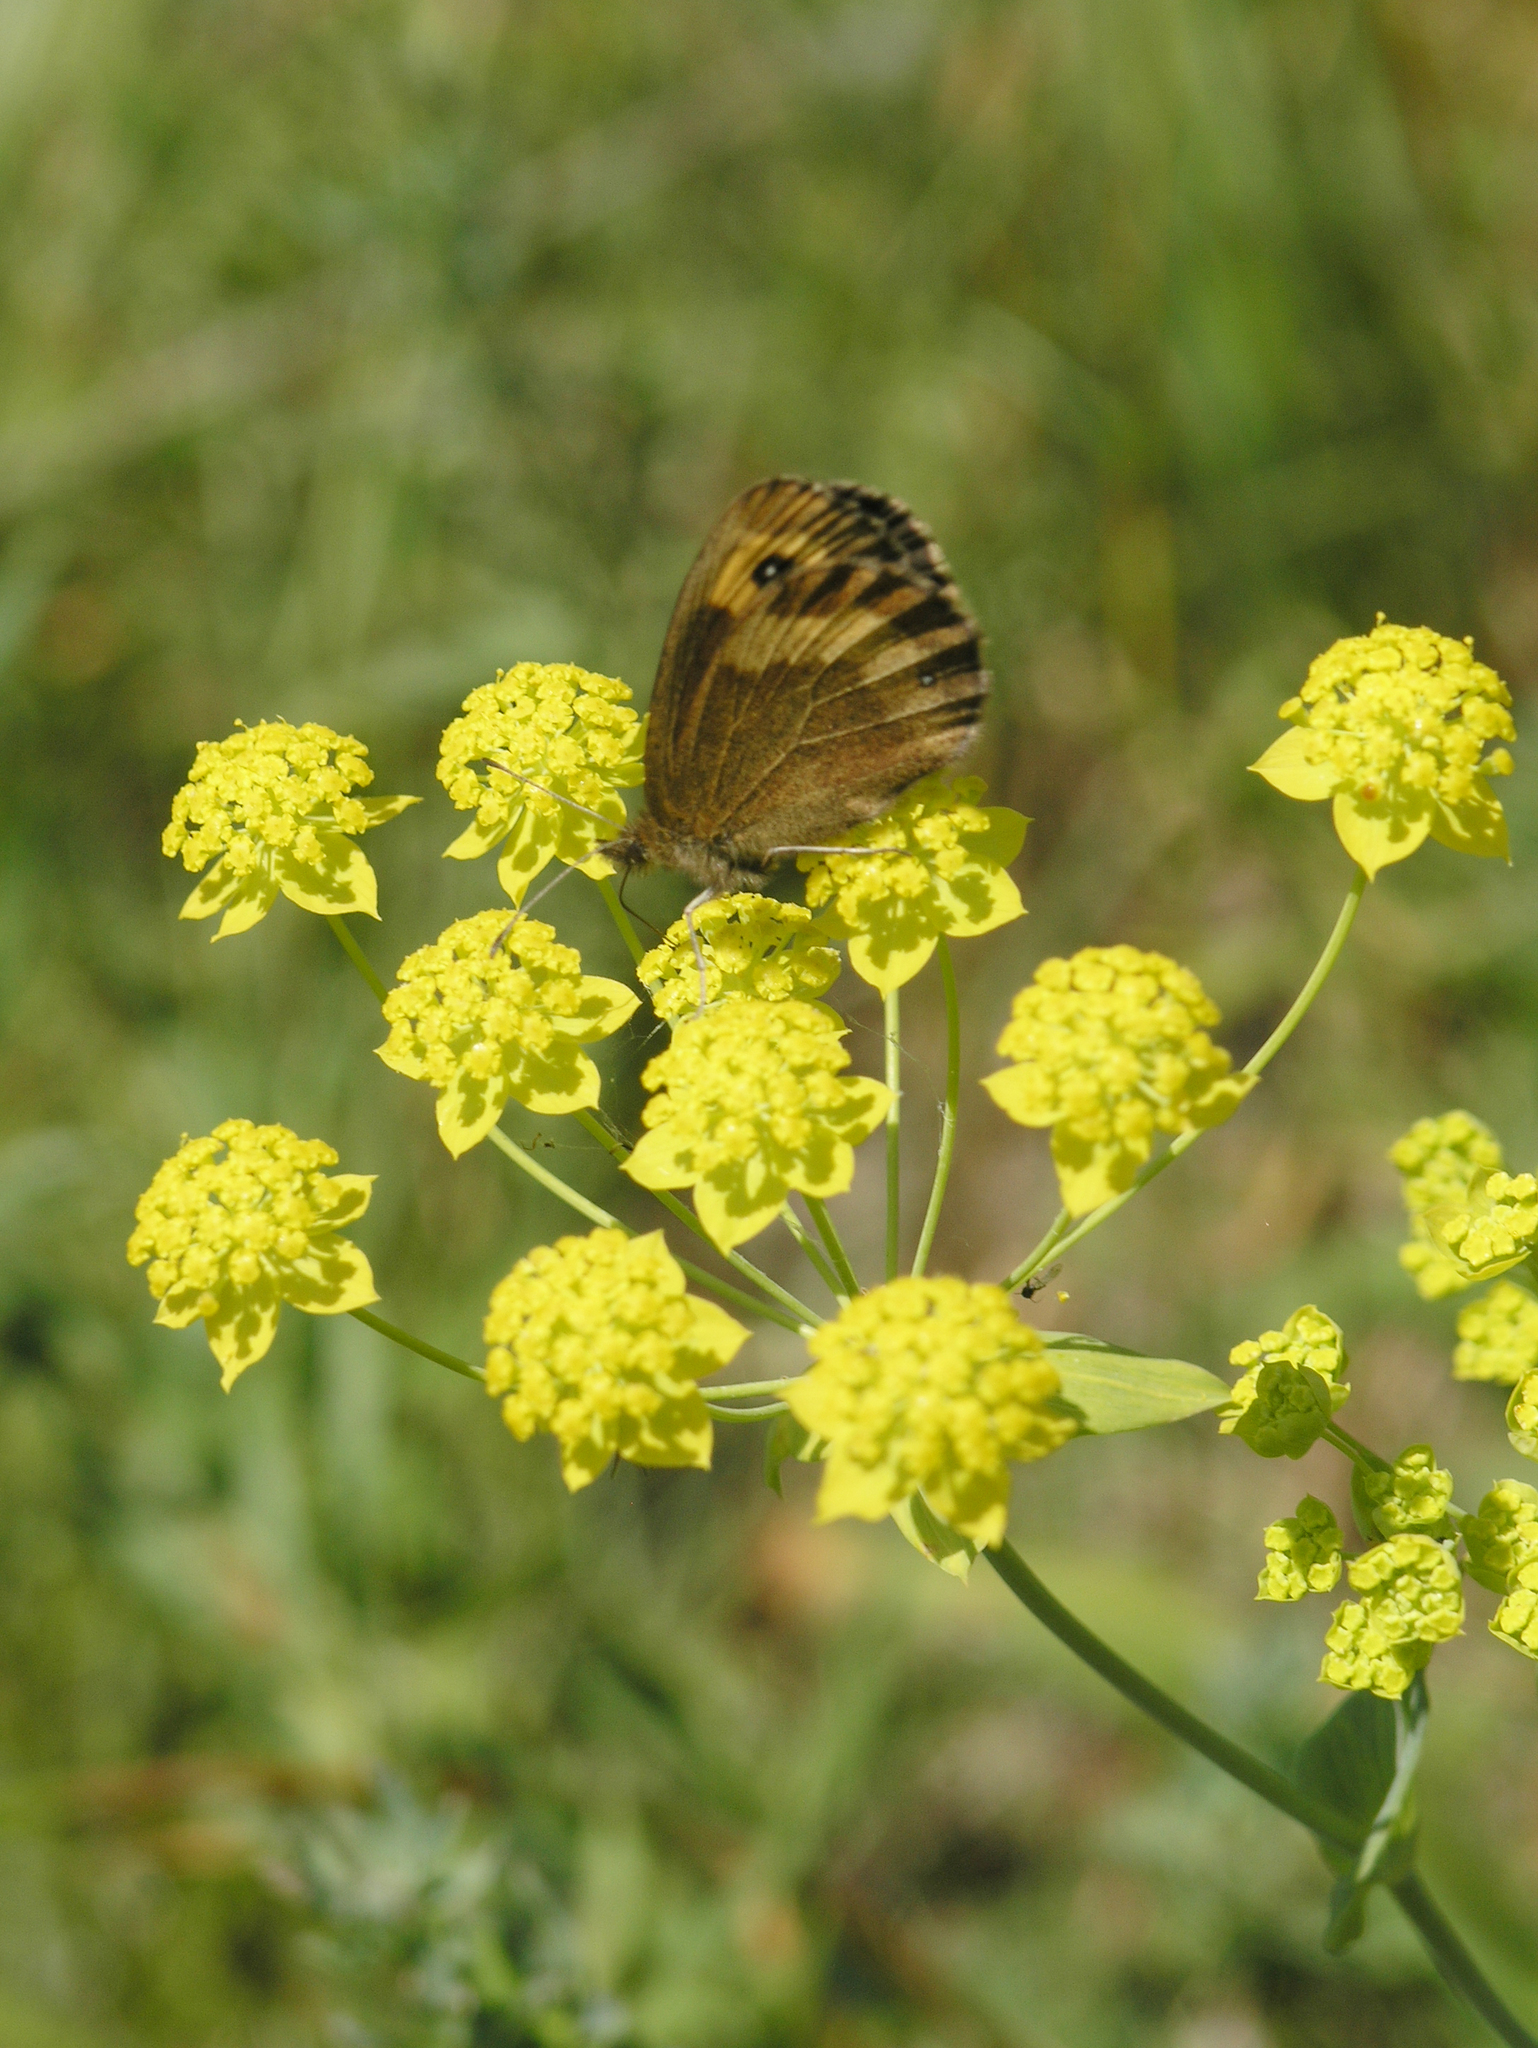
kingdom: Animalia
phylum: Arthropoda
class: Insecta
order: Lepidoptera
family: Nymphalidae
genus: Erebia
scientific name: Erebia neriene
